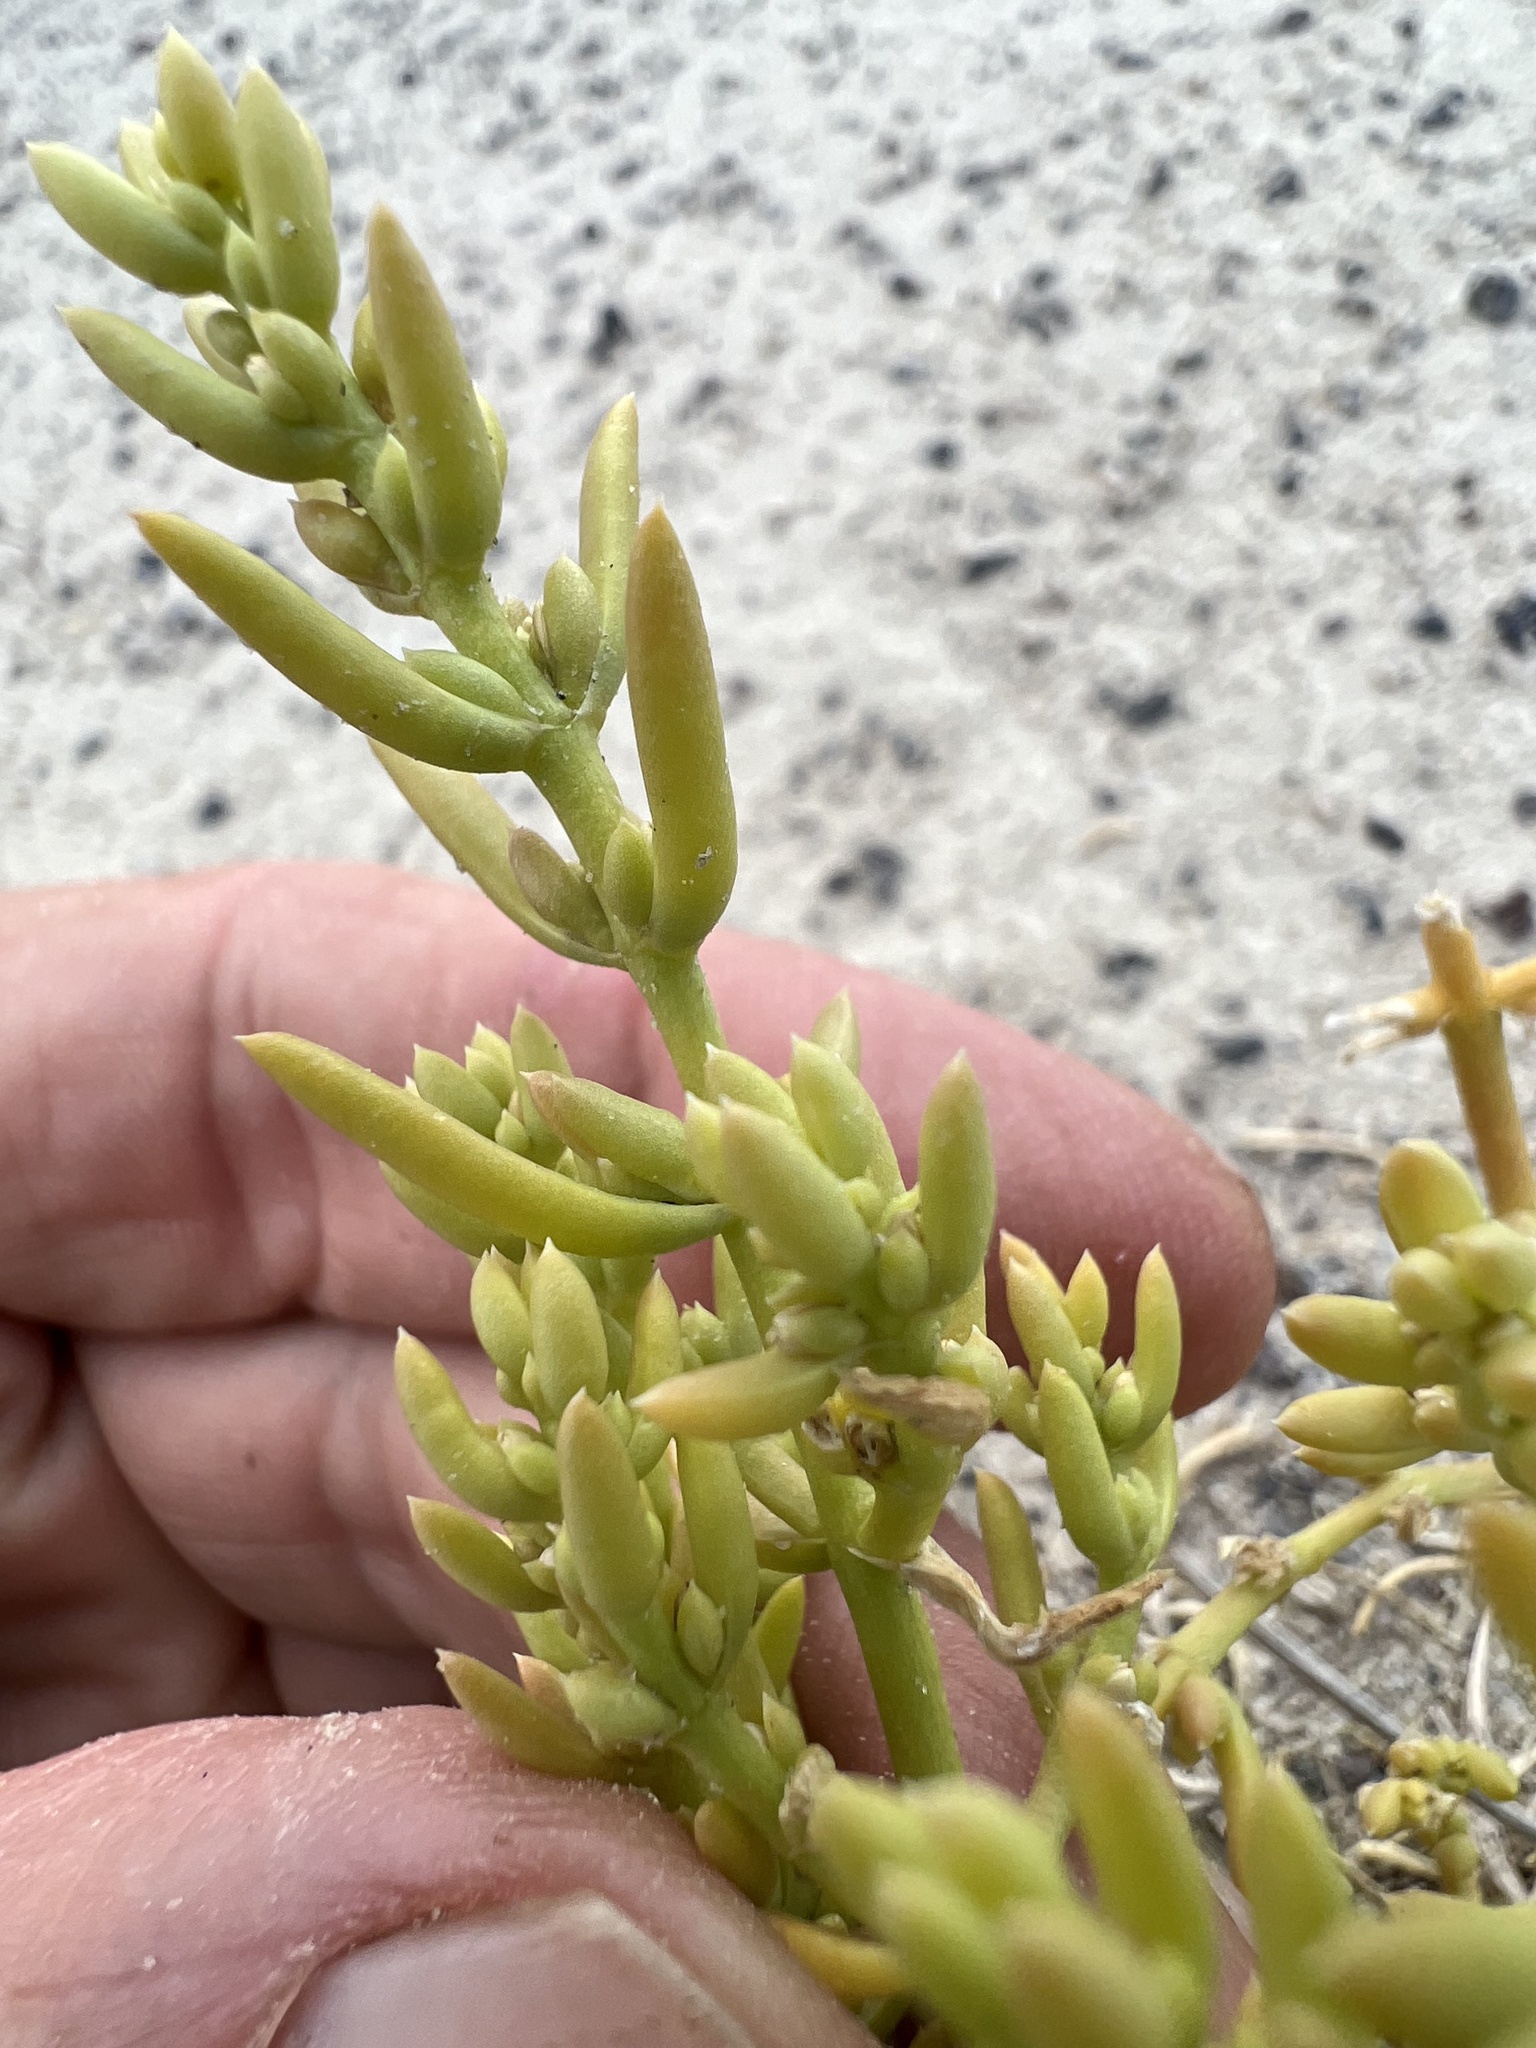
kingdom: Plantae
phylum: Tracheophyta
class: Magnoliopsida
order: Caryophyllales
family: Amaranthaceae
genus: Nitrophila
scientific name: Nitrophila occidentalis
